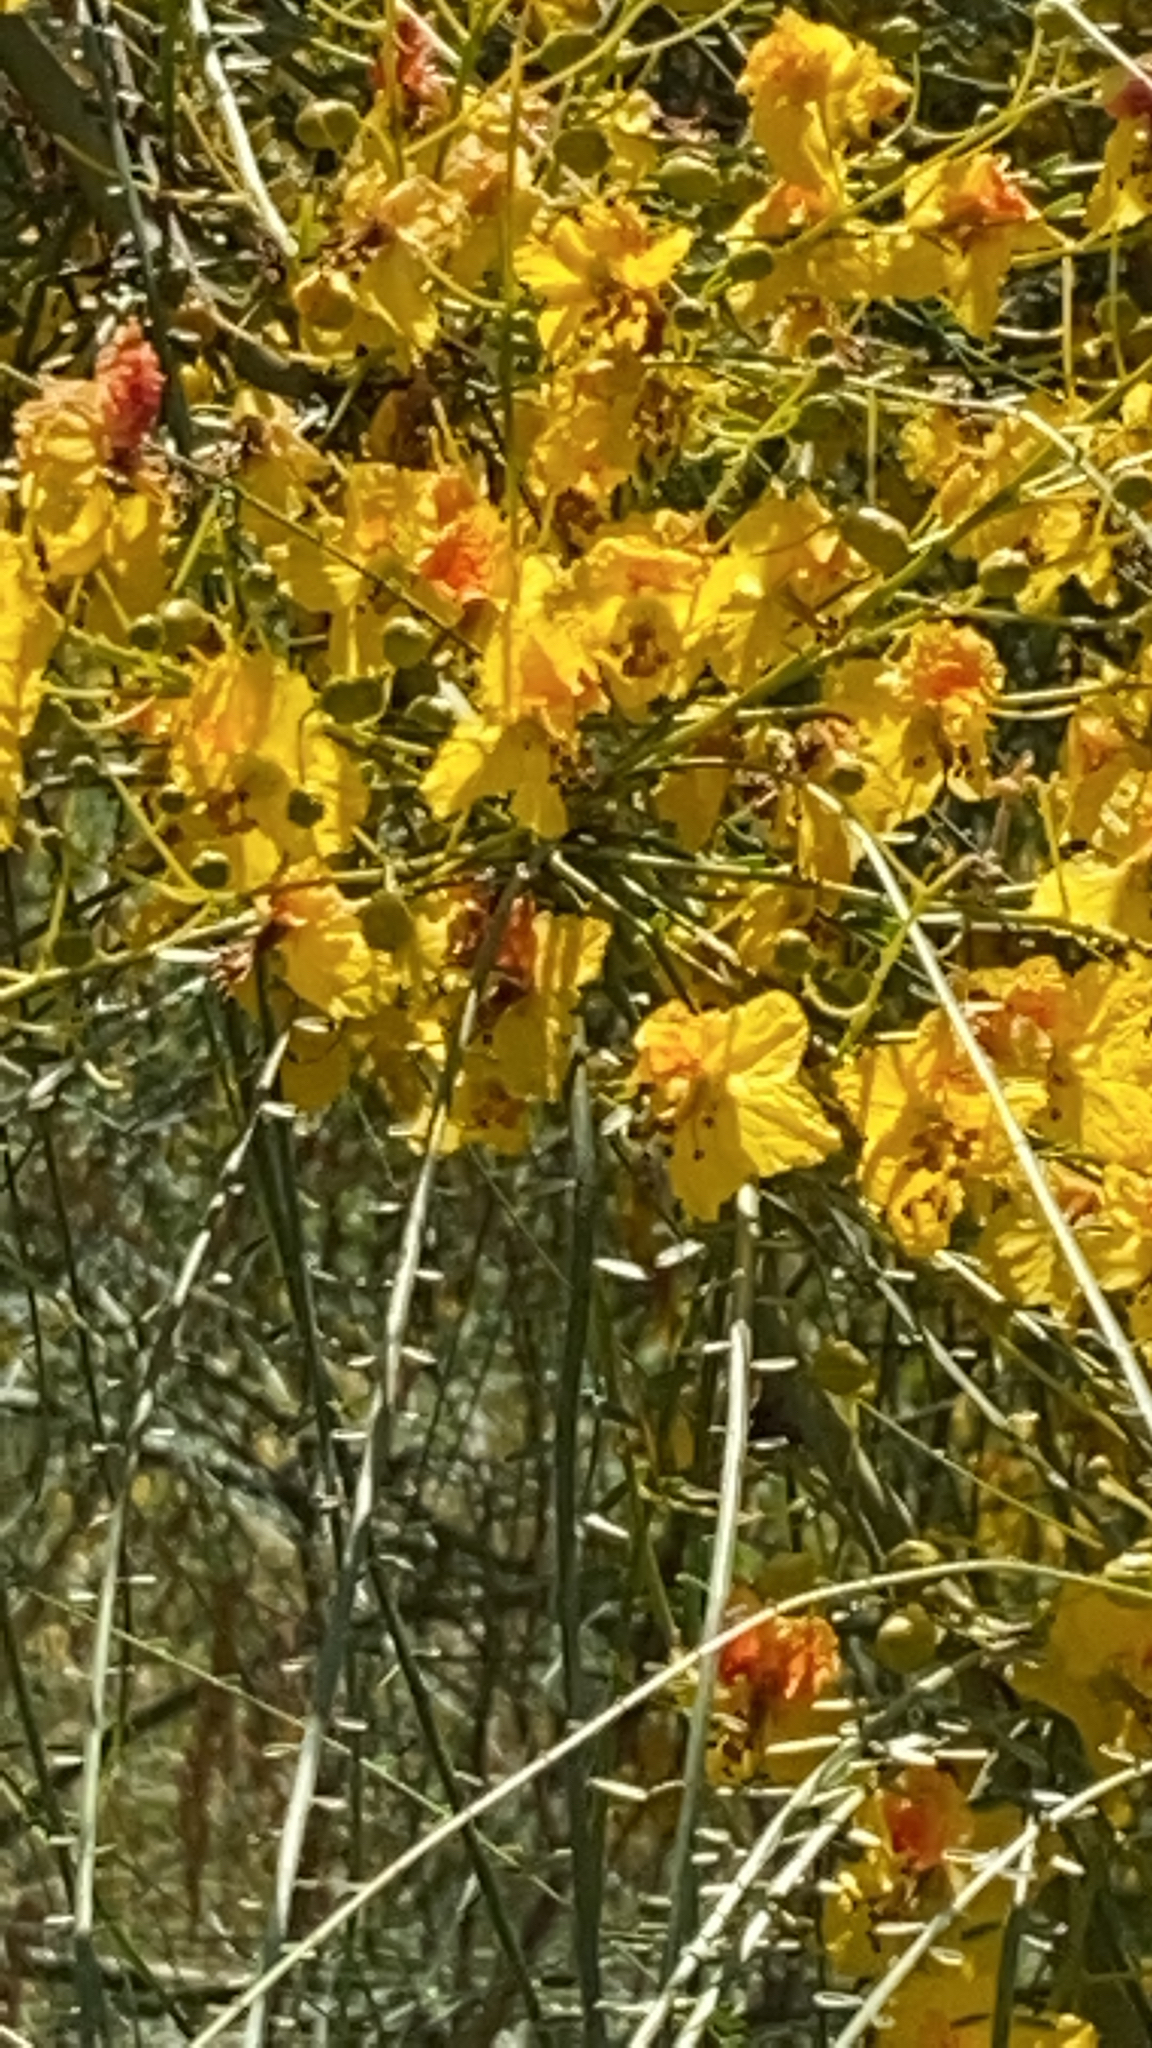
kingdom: Plantae
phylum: Tracheophyta
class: Magnoliopsida
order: Fabales
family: Fabaceae
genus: Parkinsonia
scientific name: Parkinsonia aculeata
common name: Jerusalem thorn
